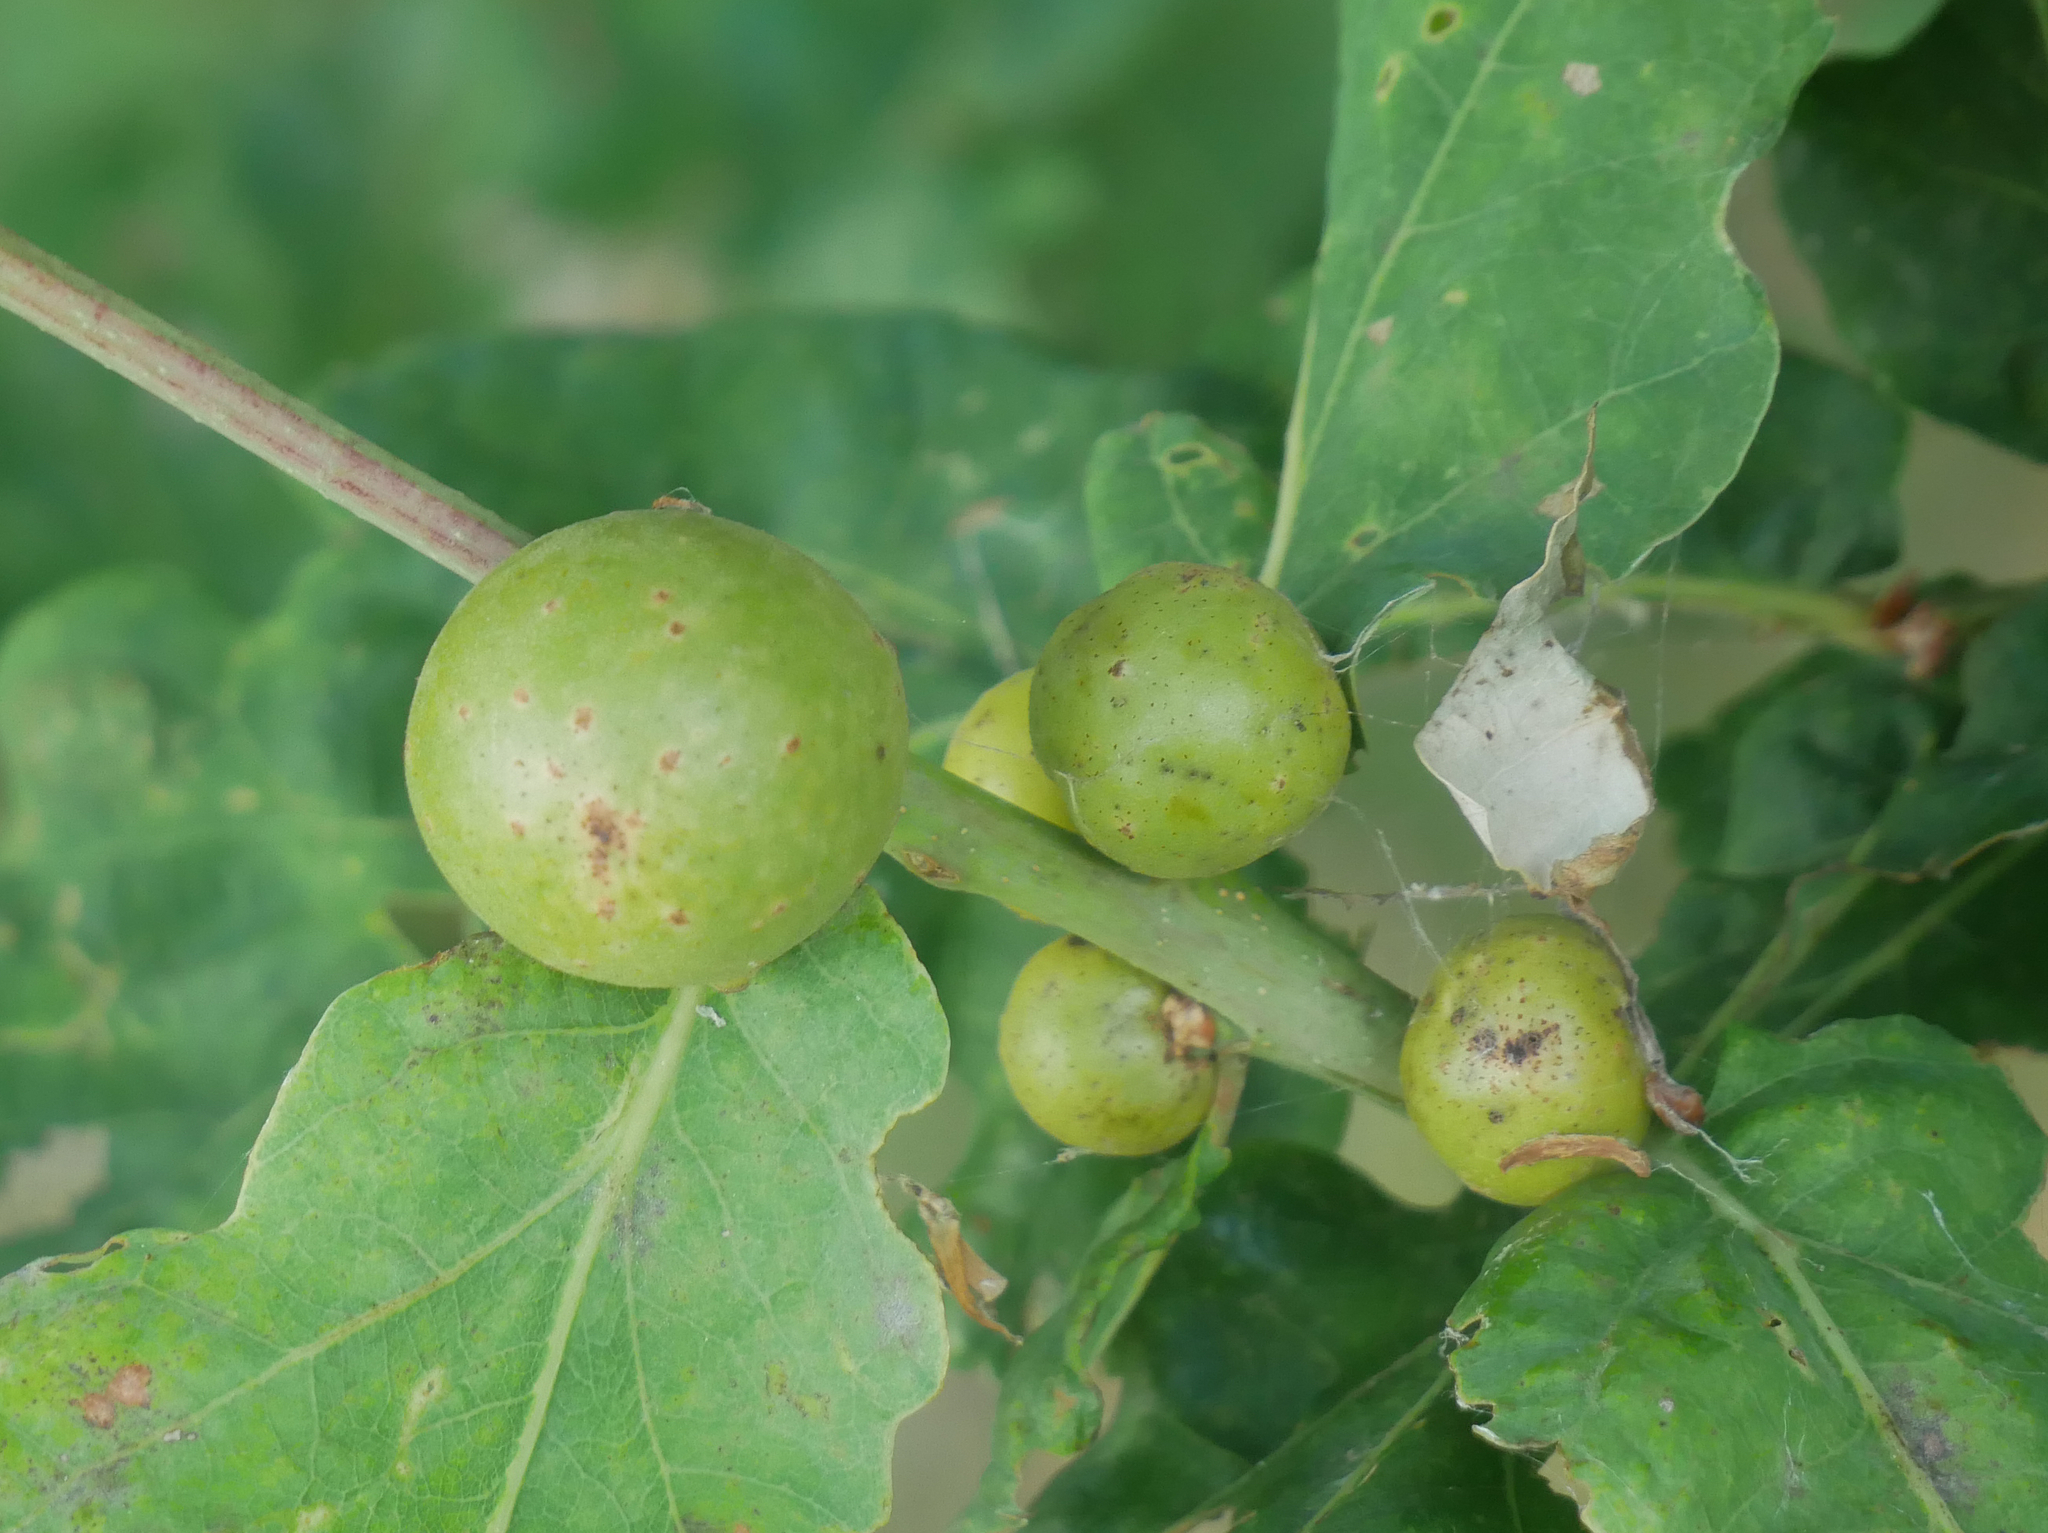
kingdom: Animalia
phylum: Arthropoda
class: Insecta
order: Hymenoptera
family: Cynipidae
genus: Andricus
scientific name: Andricus kollari
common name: Marble gall
